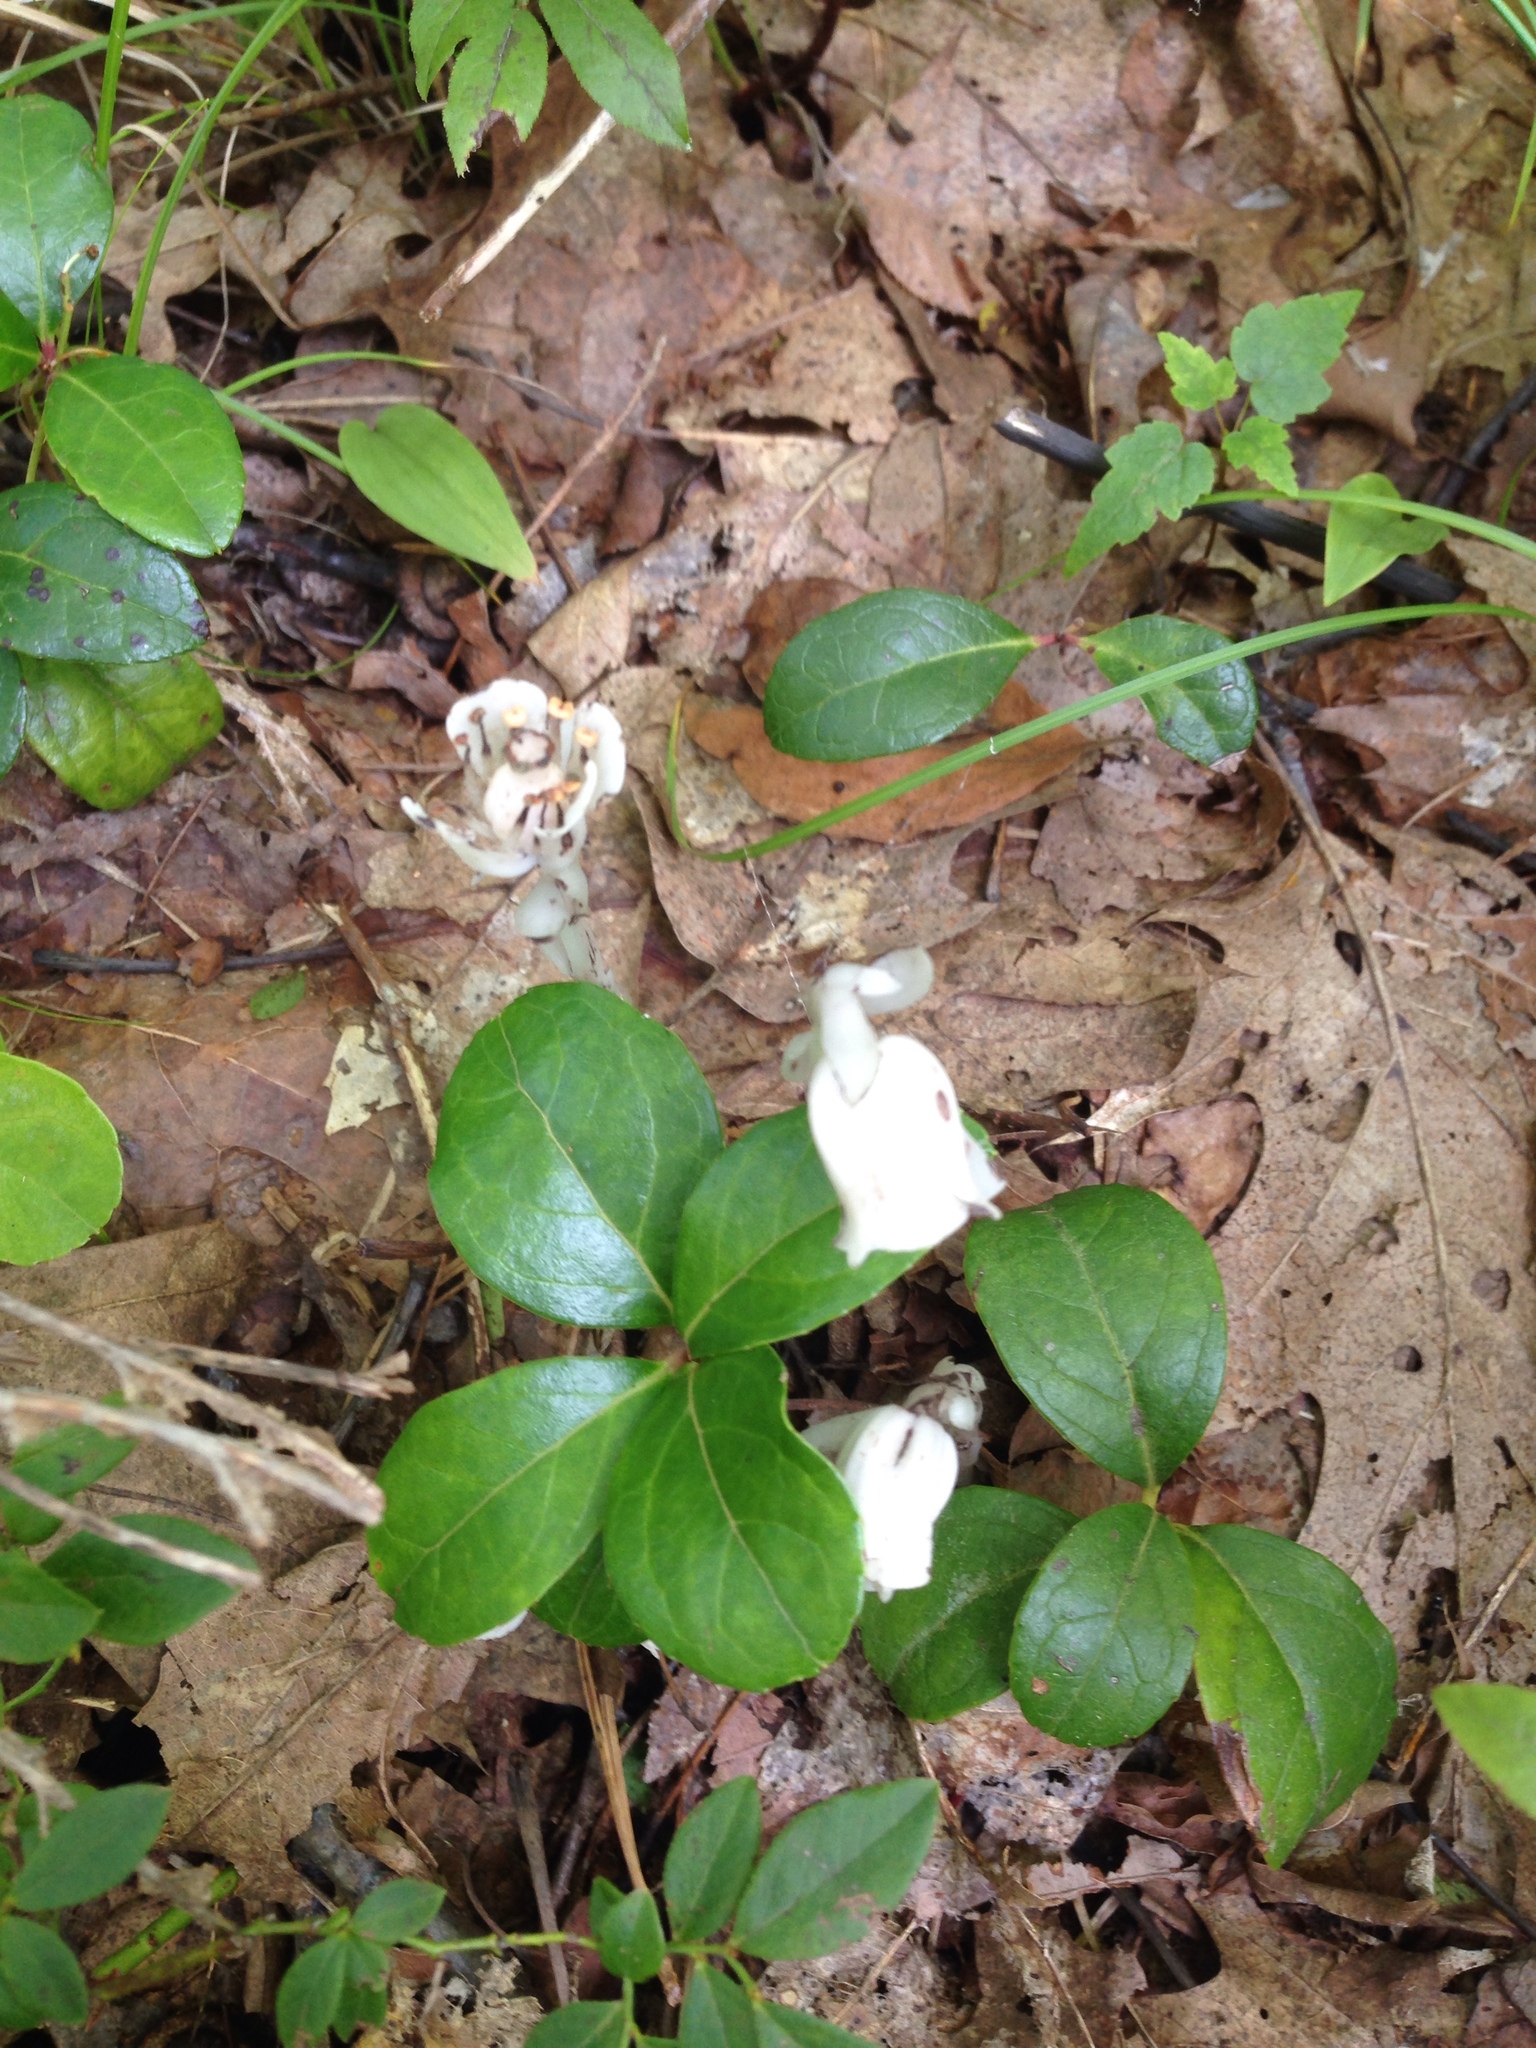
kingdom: Plantae
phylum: Tracheophyta
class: Magnoliopsida
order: Ericales
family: Ericaceae
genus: Monotropa
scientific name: Monotropa uniflora
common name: Convulsion root
